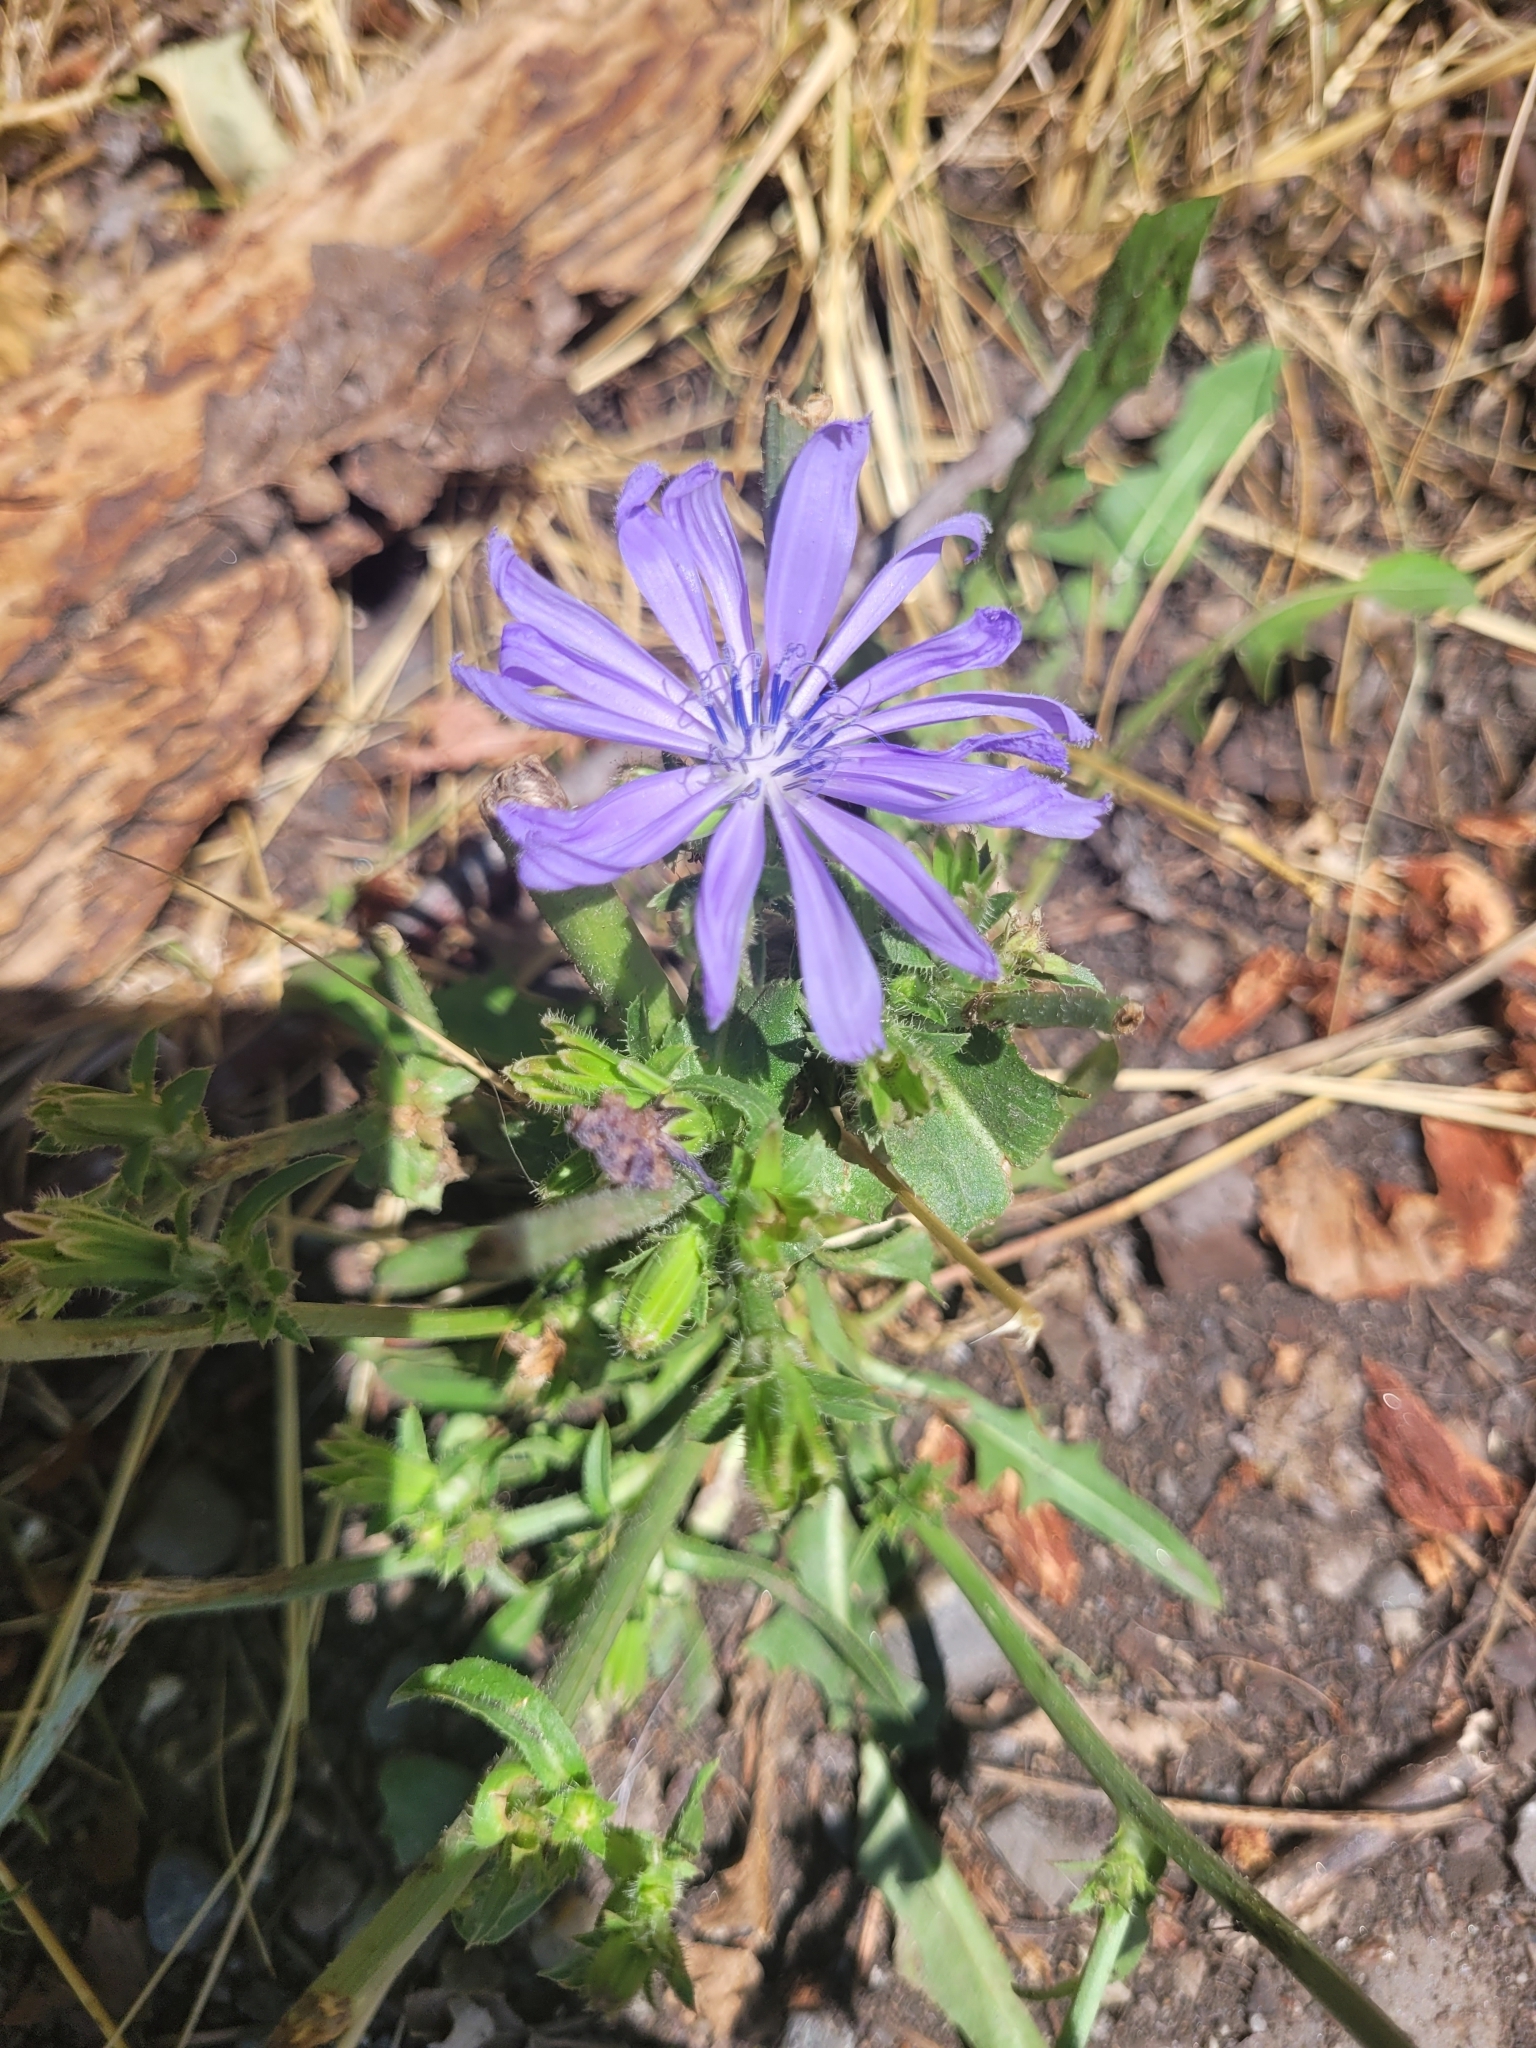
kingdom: Plantae
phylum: Tracheophyta
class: Magnoliopsida
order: Asterales
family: Asteraceae
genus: Cichorium
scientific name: Cichorium intybus
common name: Chicory
